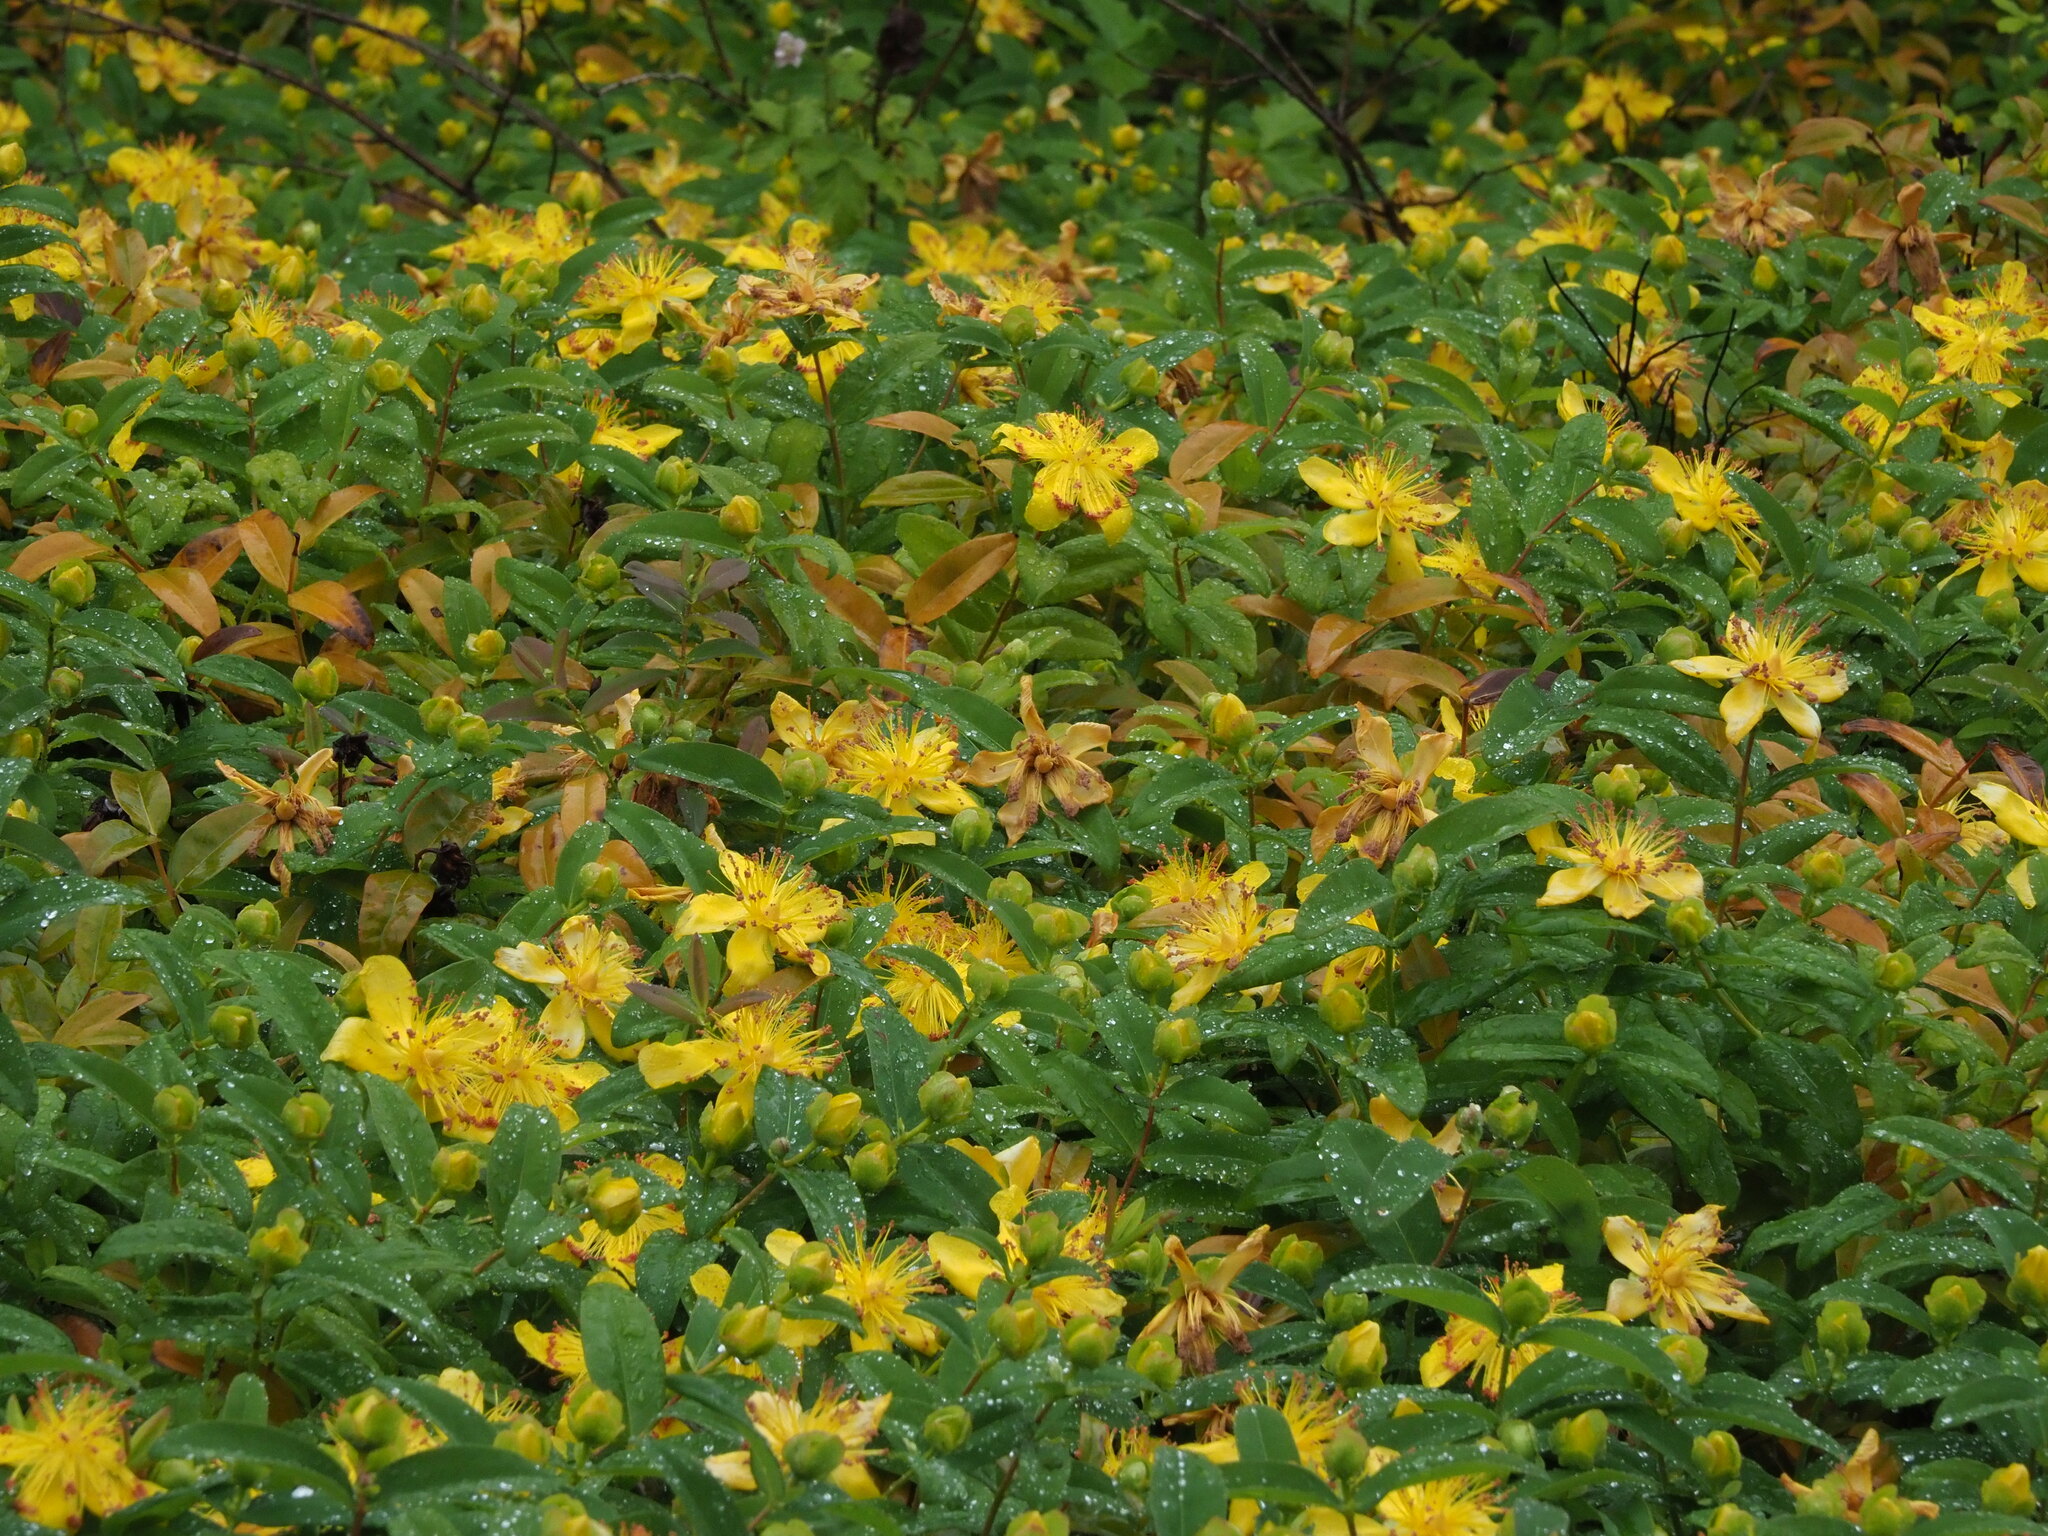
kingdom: Plantae
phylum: Tracheophyta
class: Magnoliopsida
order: Malpighiales
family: Hypericaceae
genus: Hypericum
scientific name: Hypericum calycinum
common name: Rose-of-sharon
